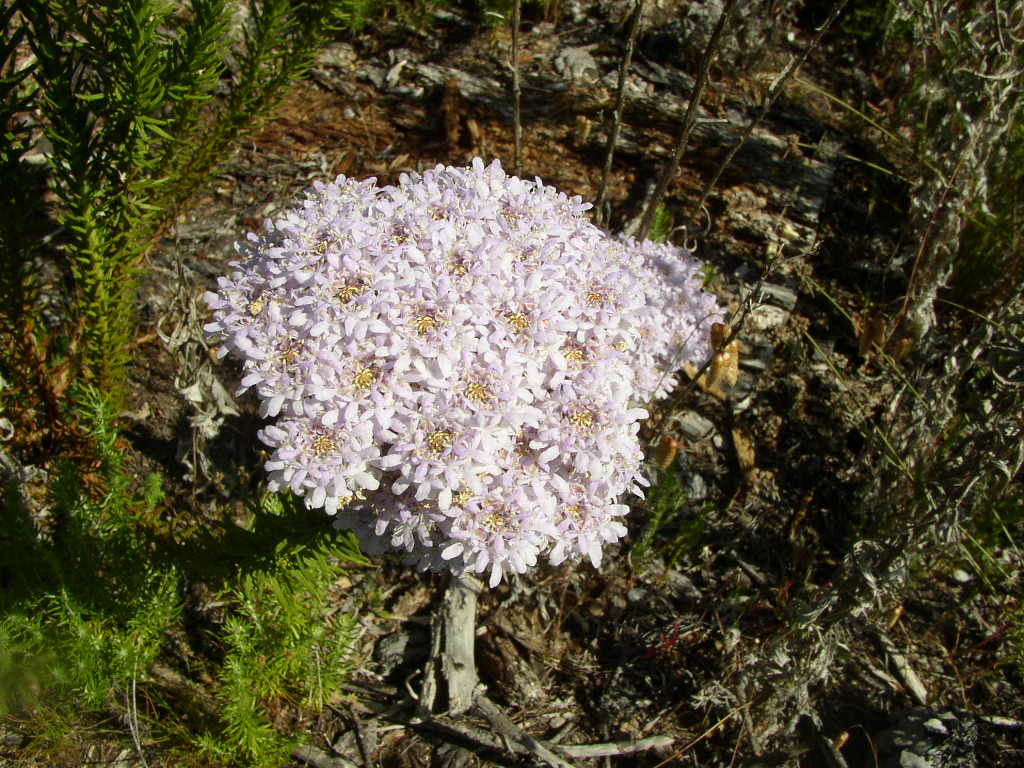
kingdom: Plantae
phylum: Tracheophyta
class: Magnoliopsida
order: Lamiales
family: Scrophulariaceae
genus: Pseudoselago
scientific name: Pseudoselago spuria
